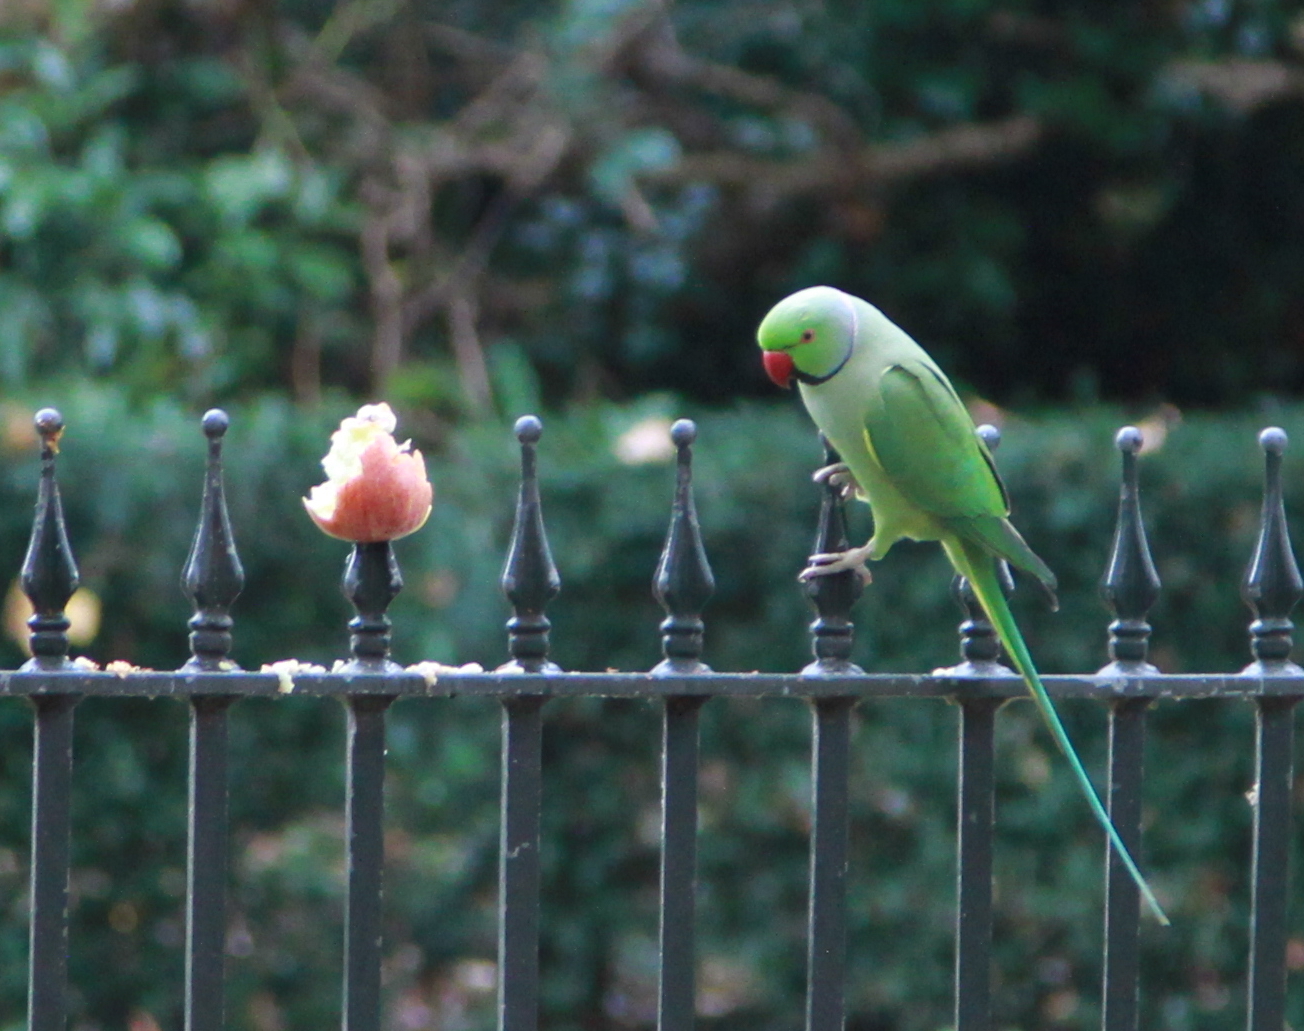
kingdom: Animalia
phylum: Chordata
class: Aves
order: Psittaciformes
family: Psittacidae
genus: Psittacula
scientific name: Psittacula krameri
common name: Rose-ringed parakeet
